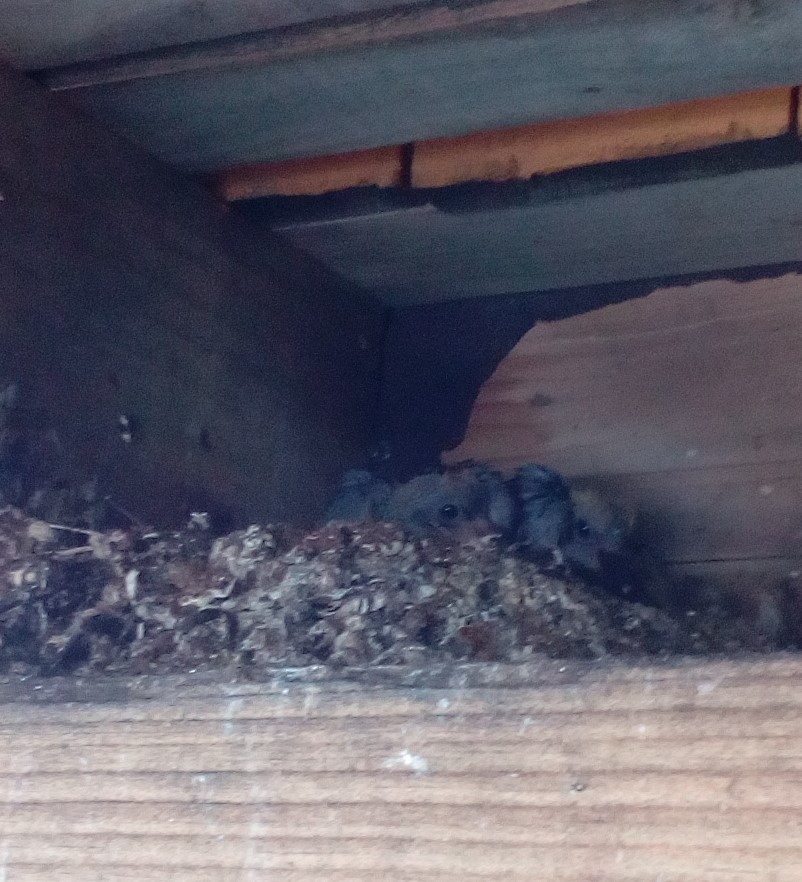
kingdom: Animalia
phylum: Chordata
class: Aves
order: Columbiformes
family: Columbidae
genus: Columba
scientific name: Columba livia
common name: Rock pigeon
